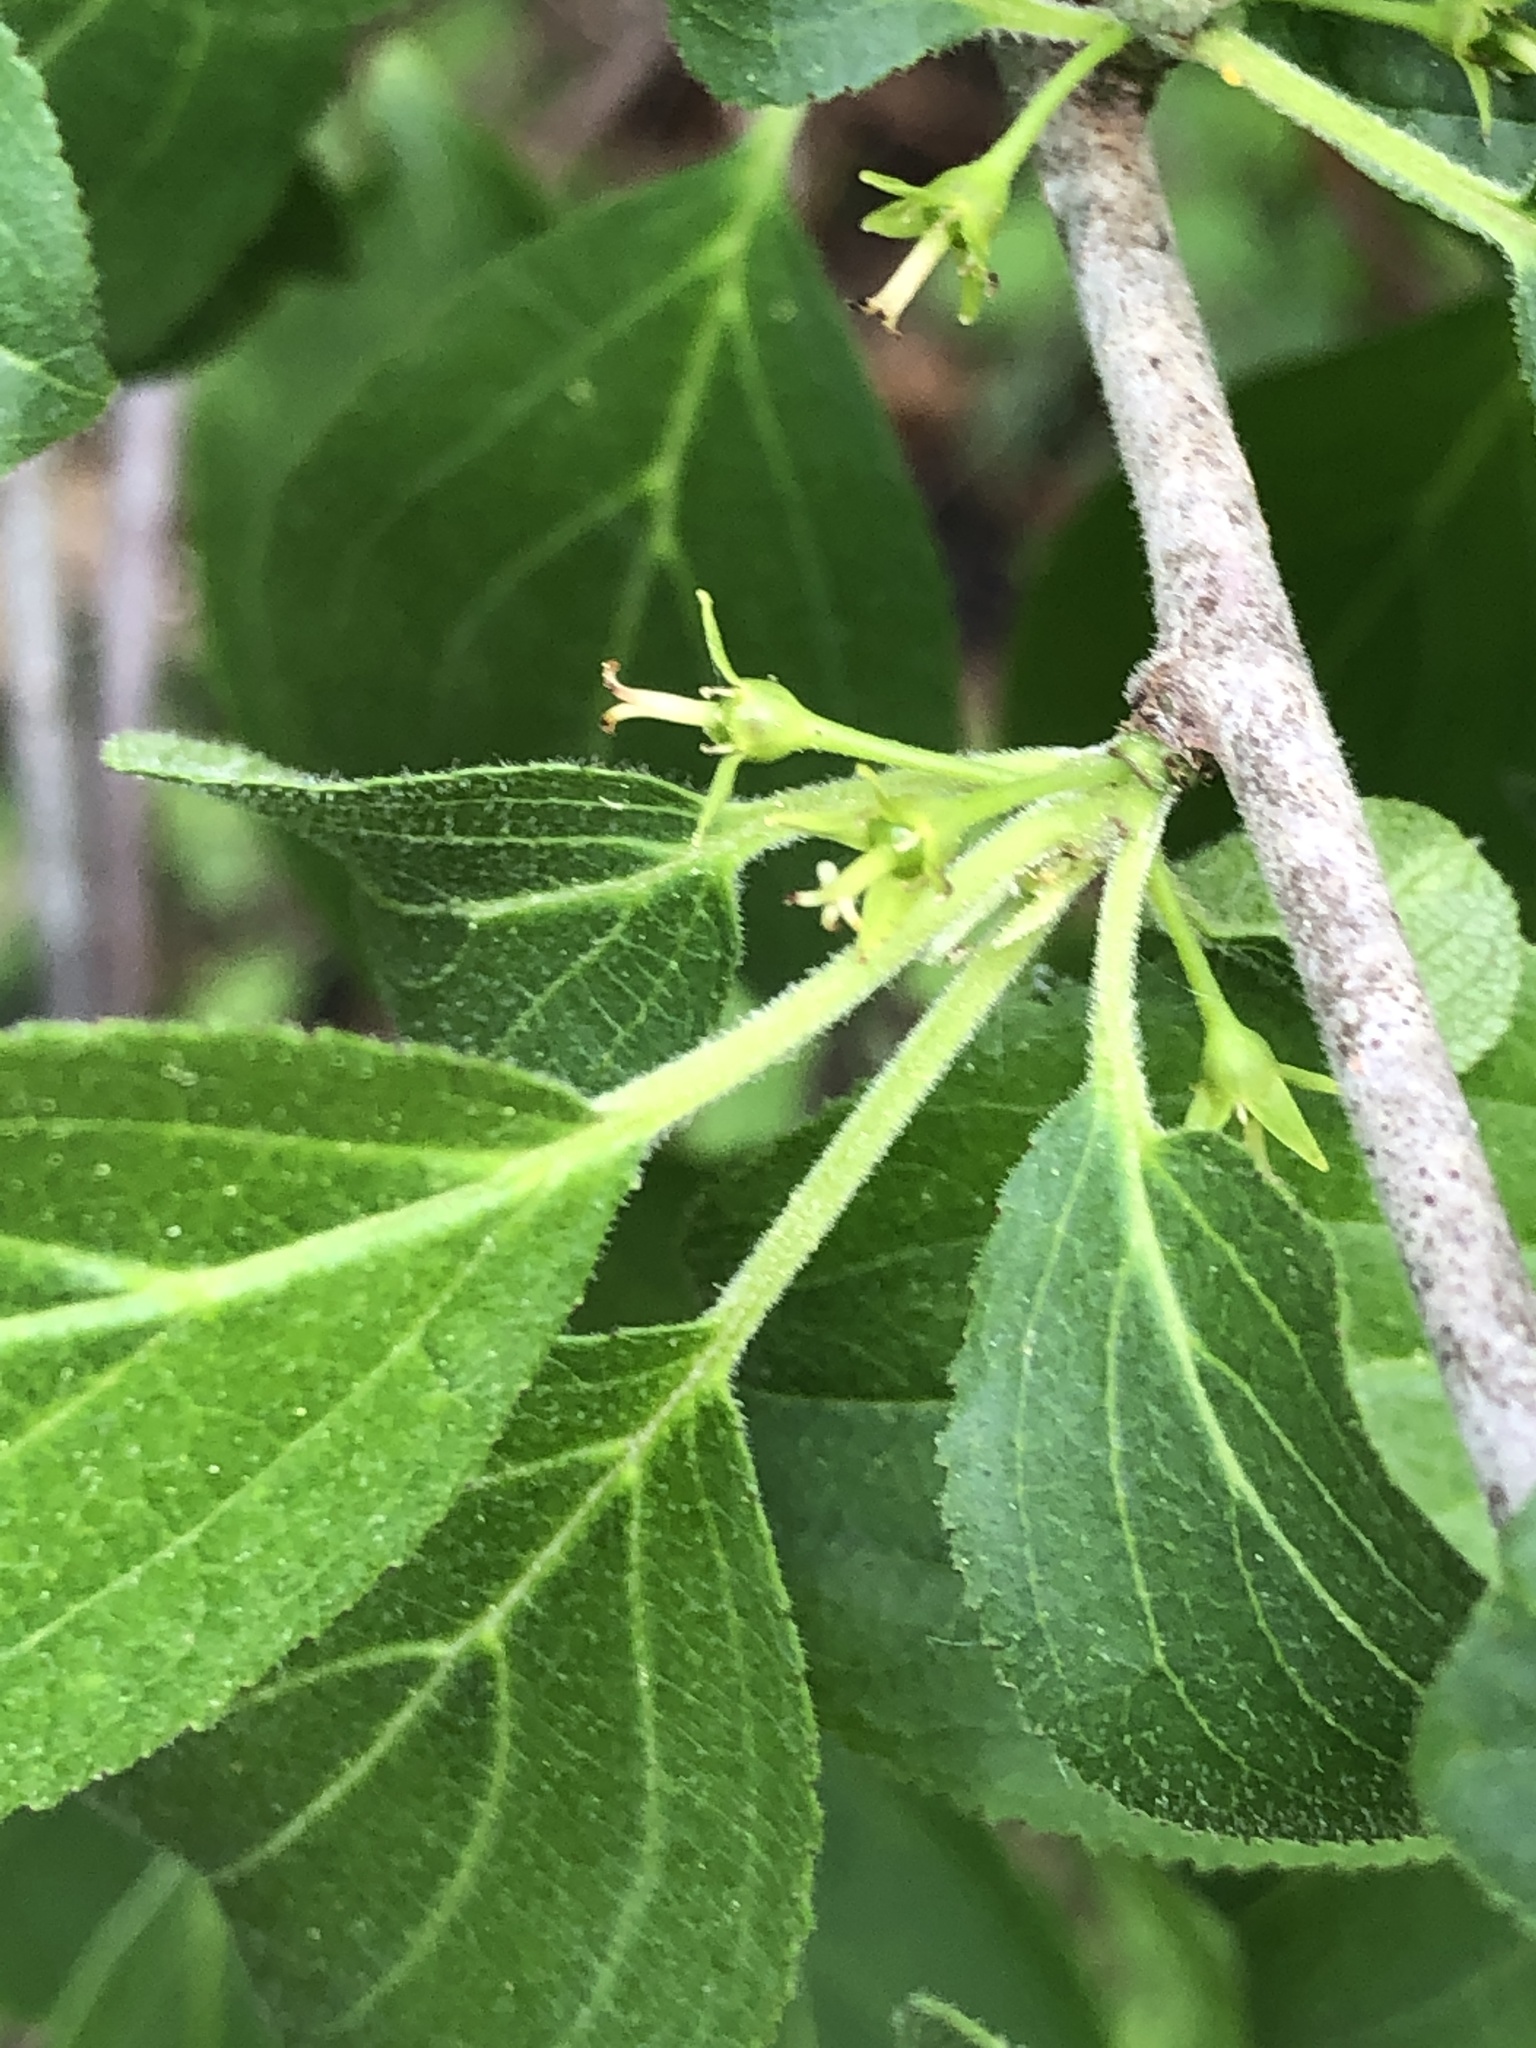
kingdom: Plantae
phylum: Tracheophyta
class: Magnoliopsida
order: Rosales
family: Rhamnaceae
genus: Rhamnus
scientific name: Rhamnus cathartica
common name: Common buckthorn
